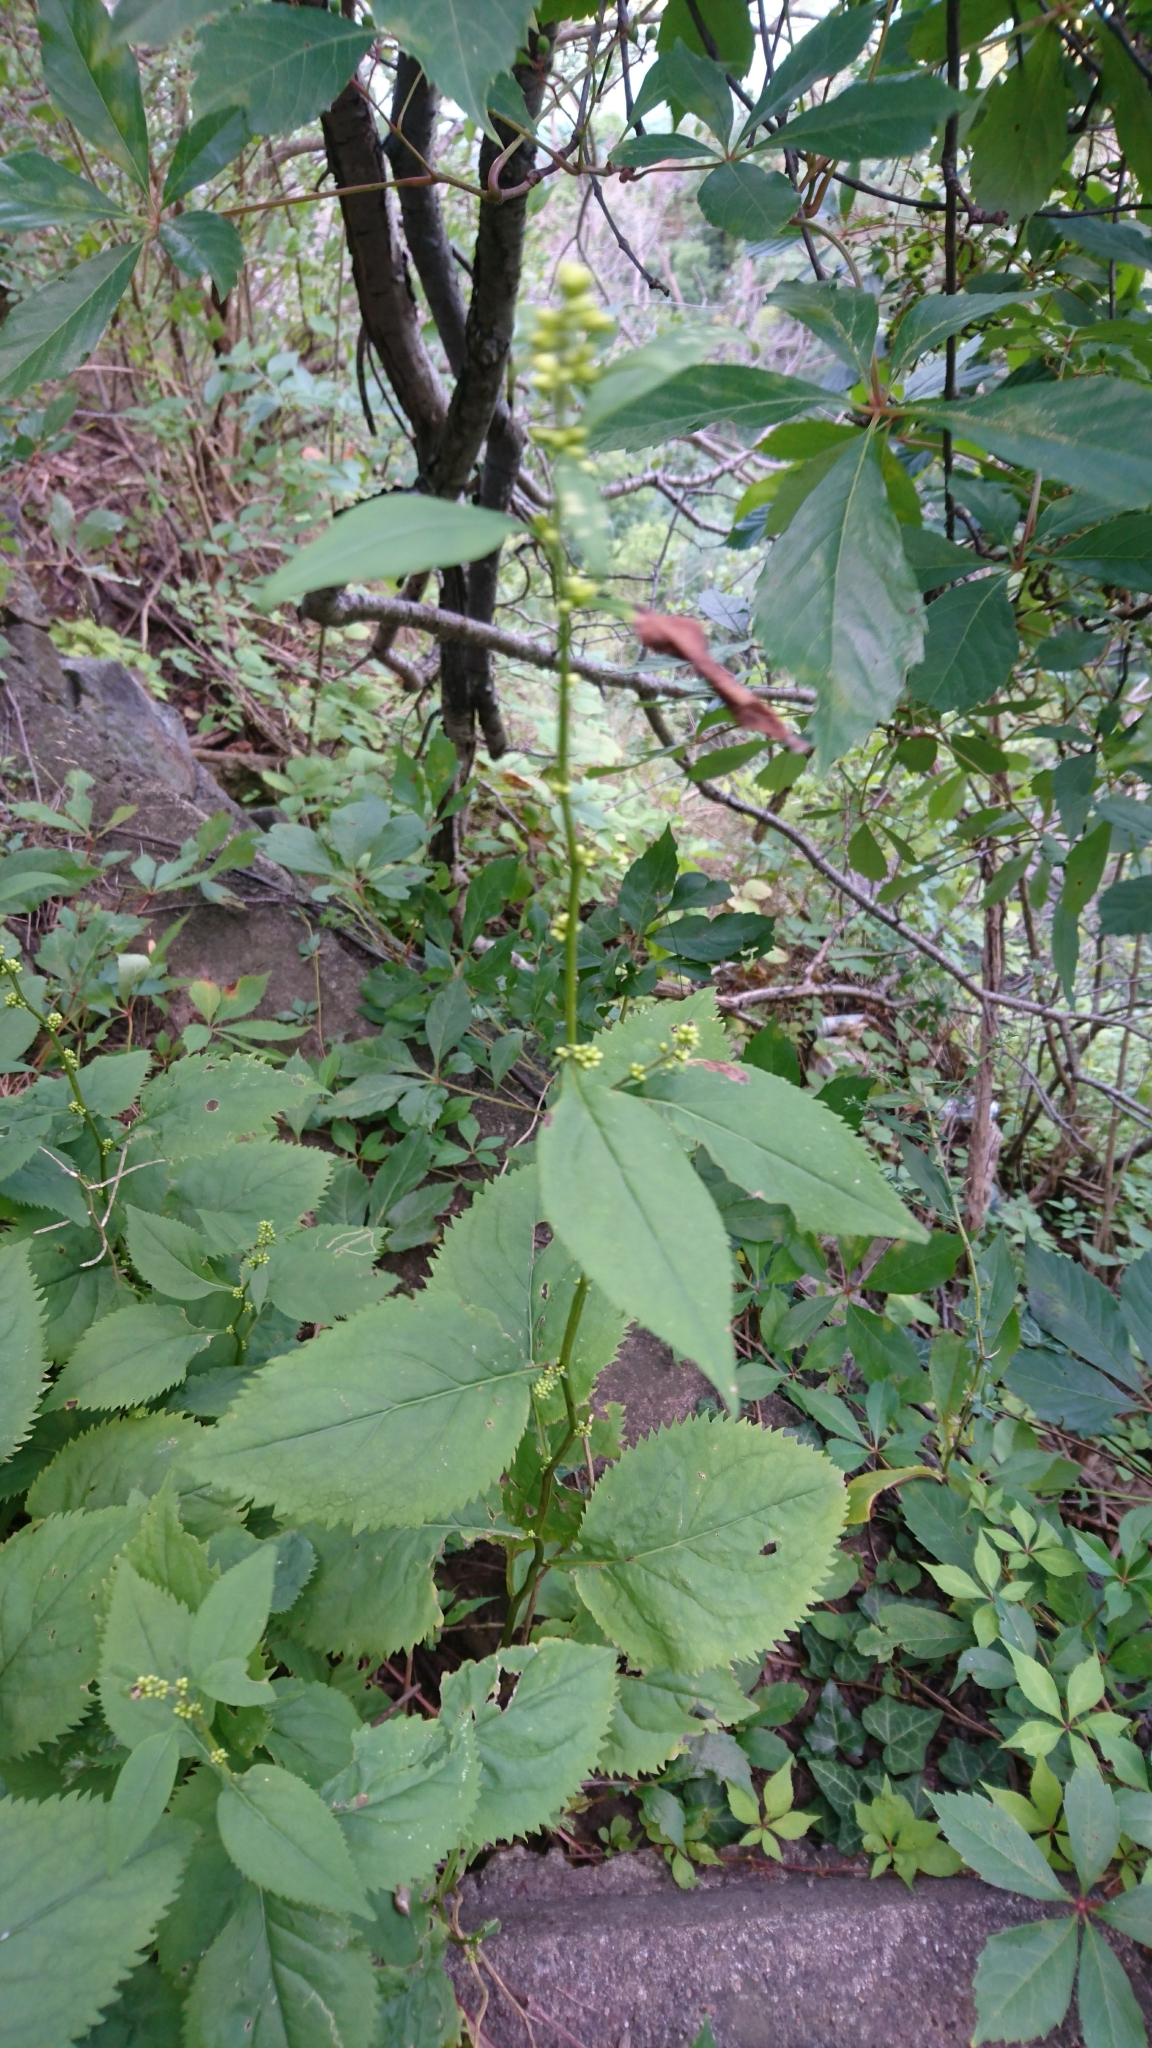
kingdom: Plantae
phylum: Tracheophyta
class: Magnoliopsida
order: Asterales
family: Asteraceae
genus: Solidago
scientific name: Solidago flexicaulis
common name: Zig-zag goldenrod
